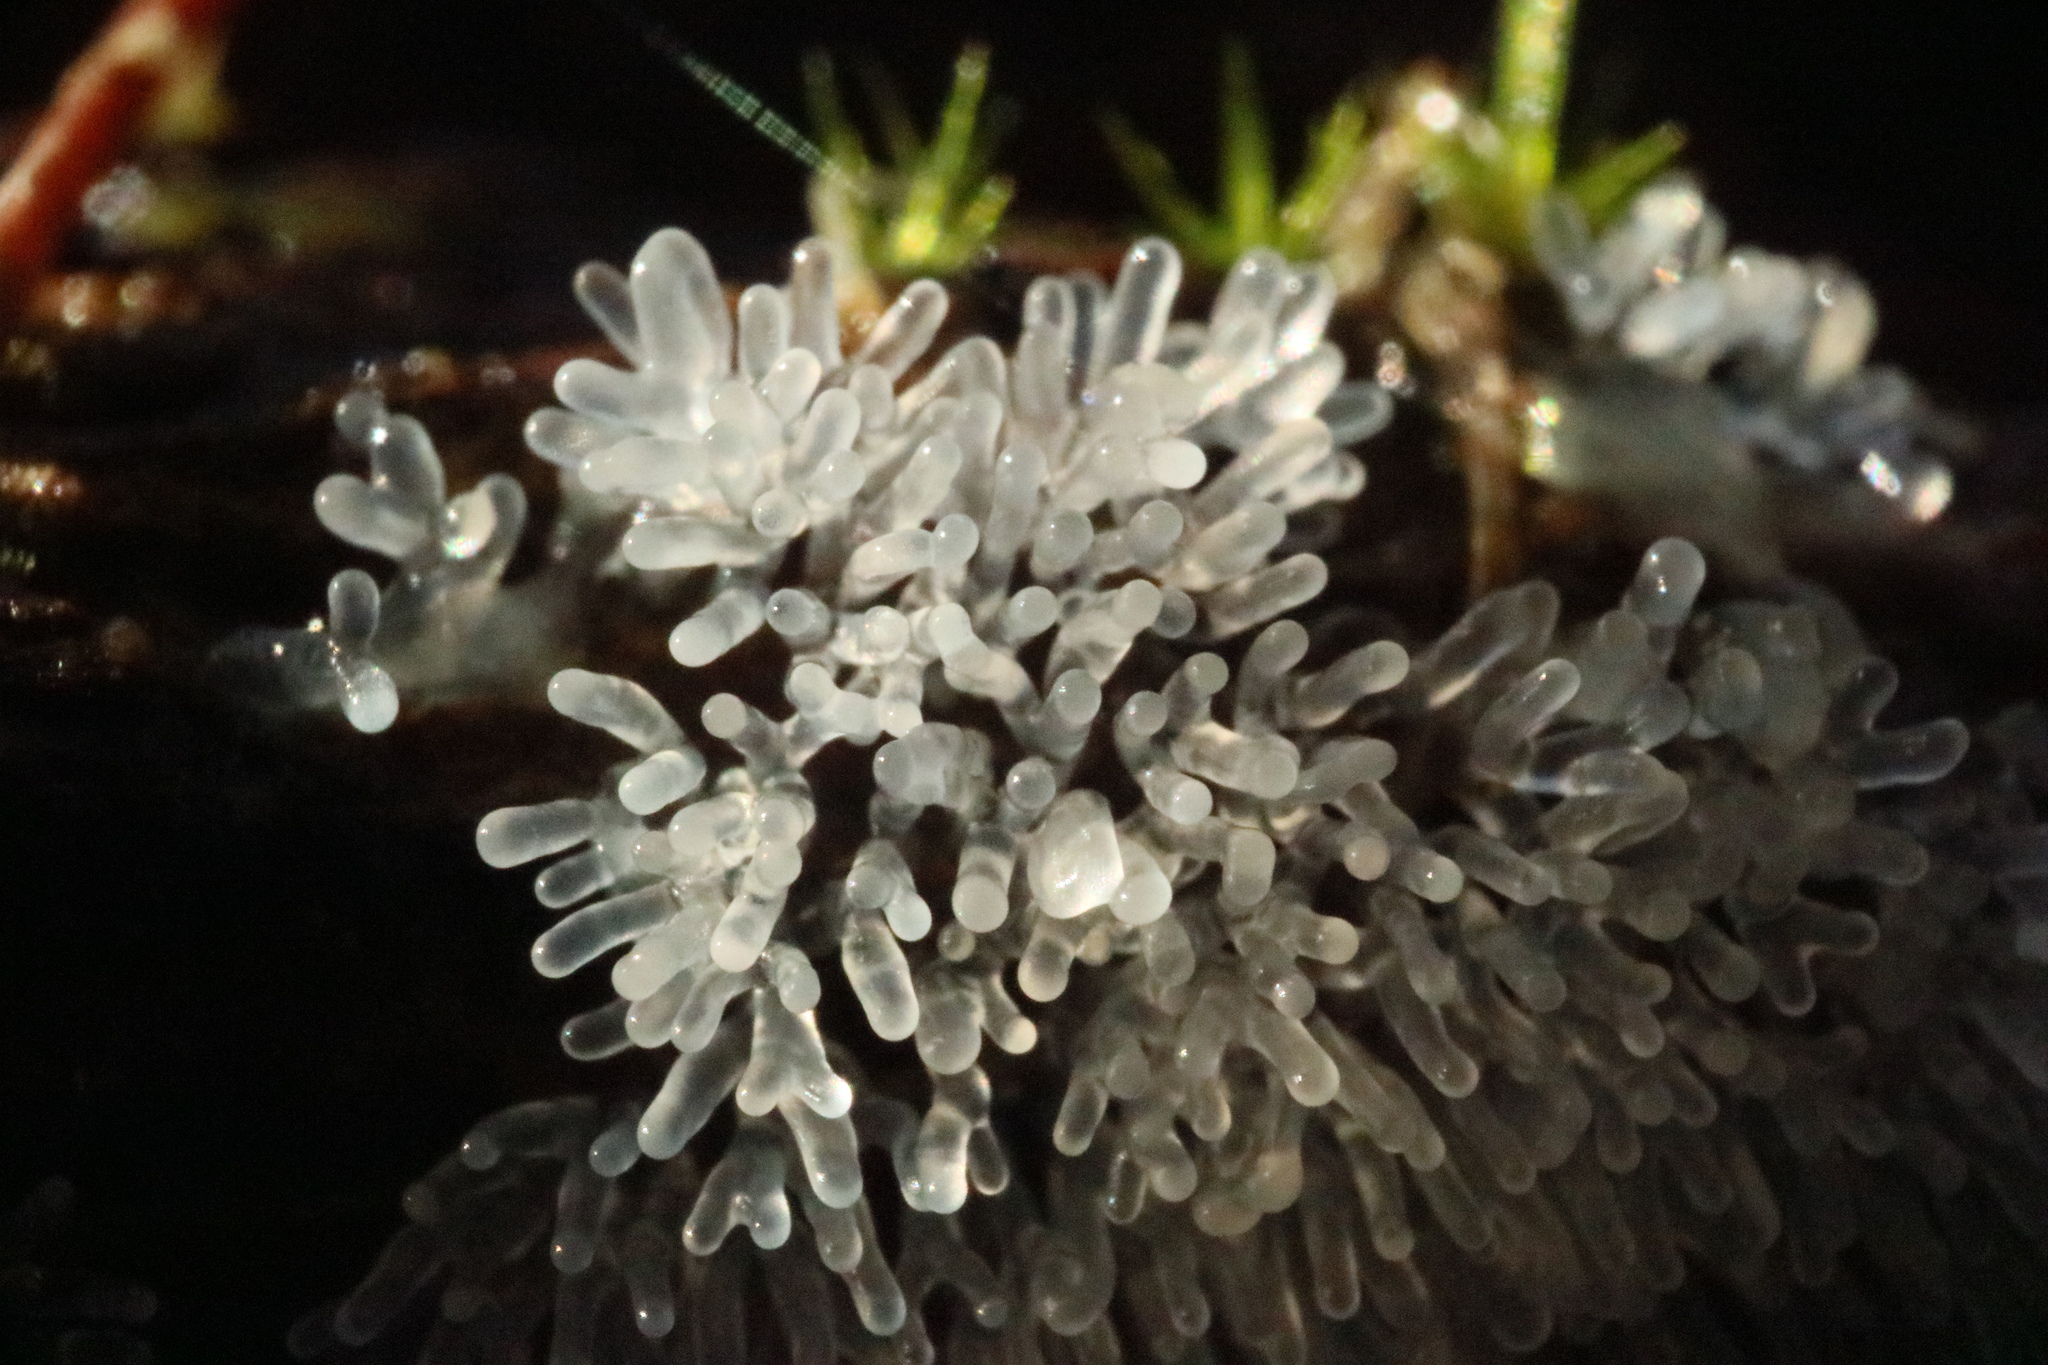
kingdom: Protozoa
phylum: Mycetozoa
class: Protosteliomycetes
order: Ceratiomyxales
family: Ceratiomyxaceae
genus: Ceratiomyxa
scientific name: Ceratiomyxa fruticulosa
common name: Honeycomb coral slime mold
